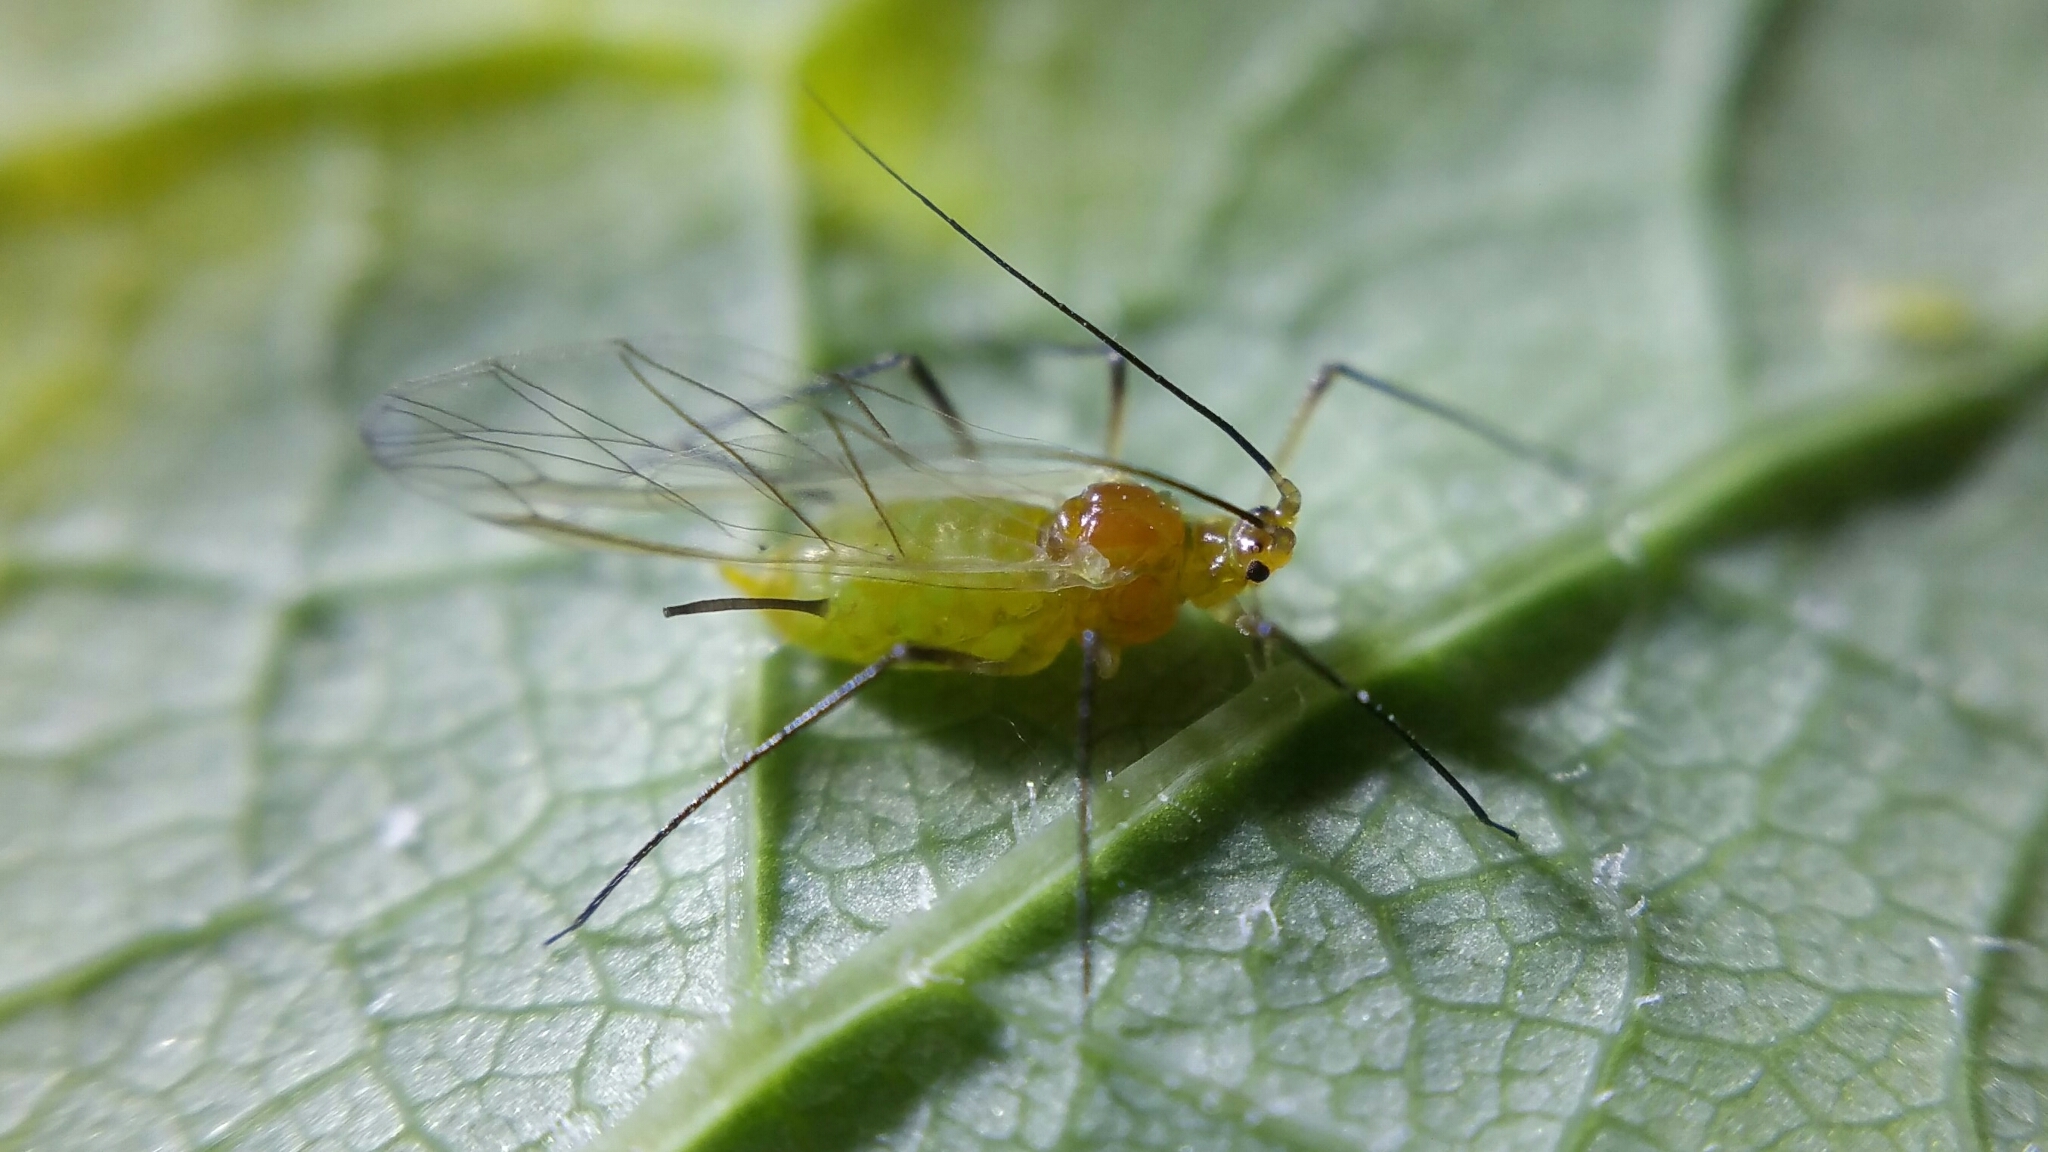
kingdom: Animalia
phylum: Arthropoda
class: Insecta
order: Hemiptera
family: Aphididae
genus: Illinoia
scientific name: Illinoia liriodendri
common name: Tuliptree aphid
